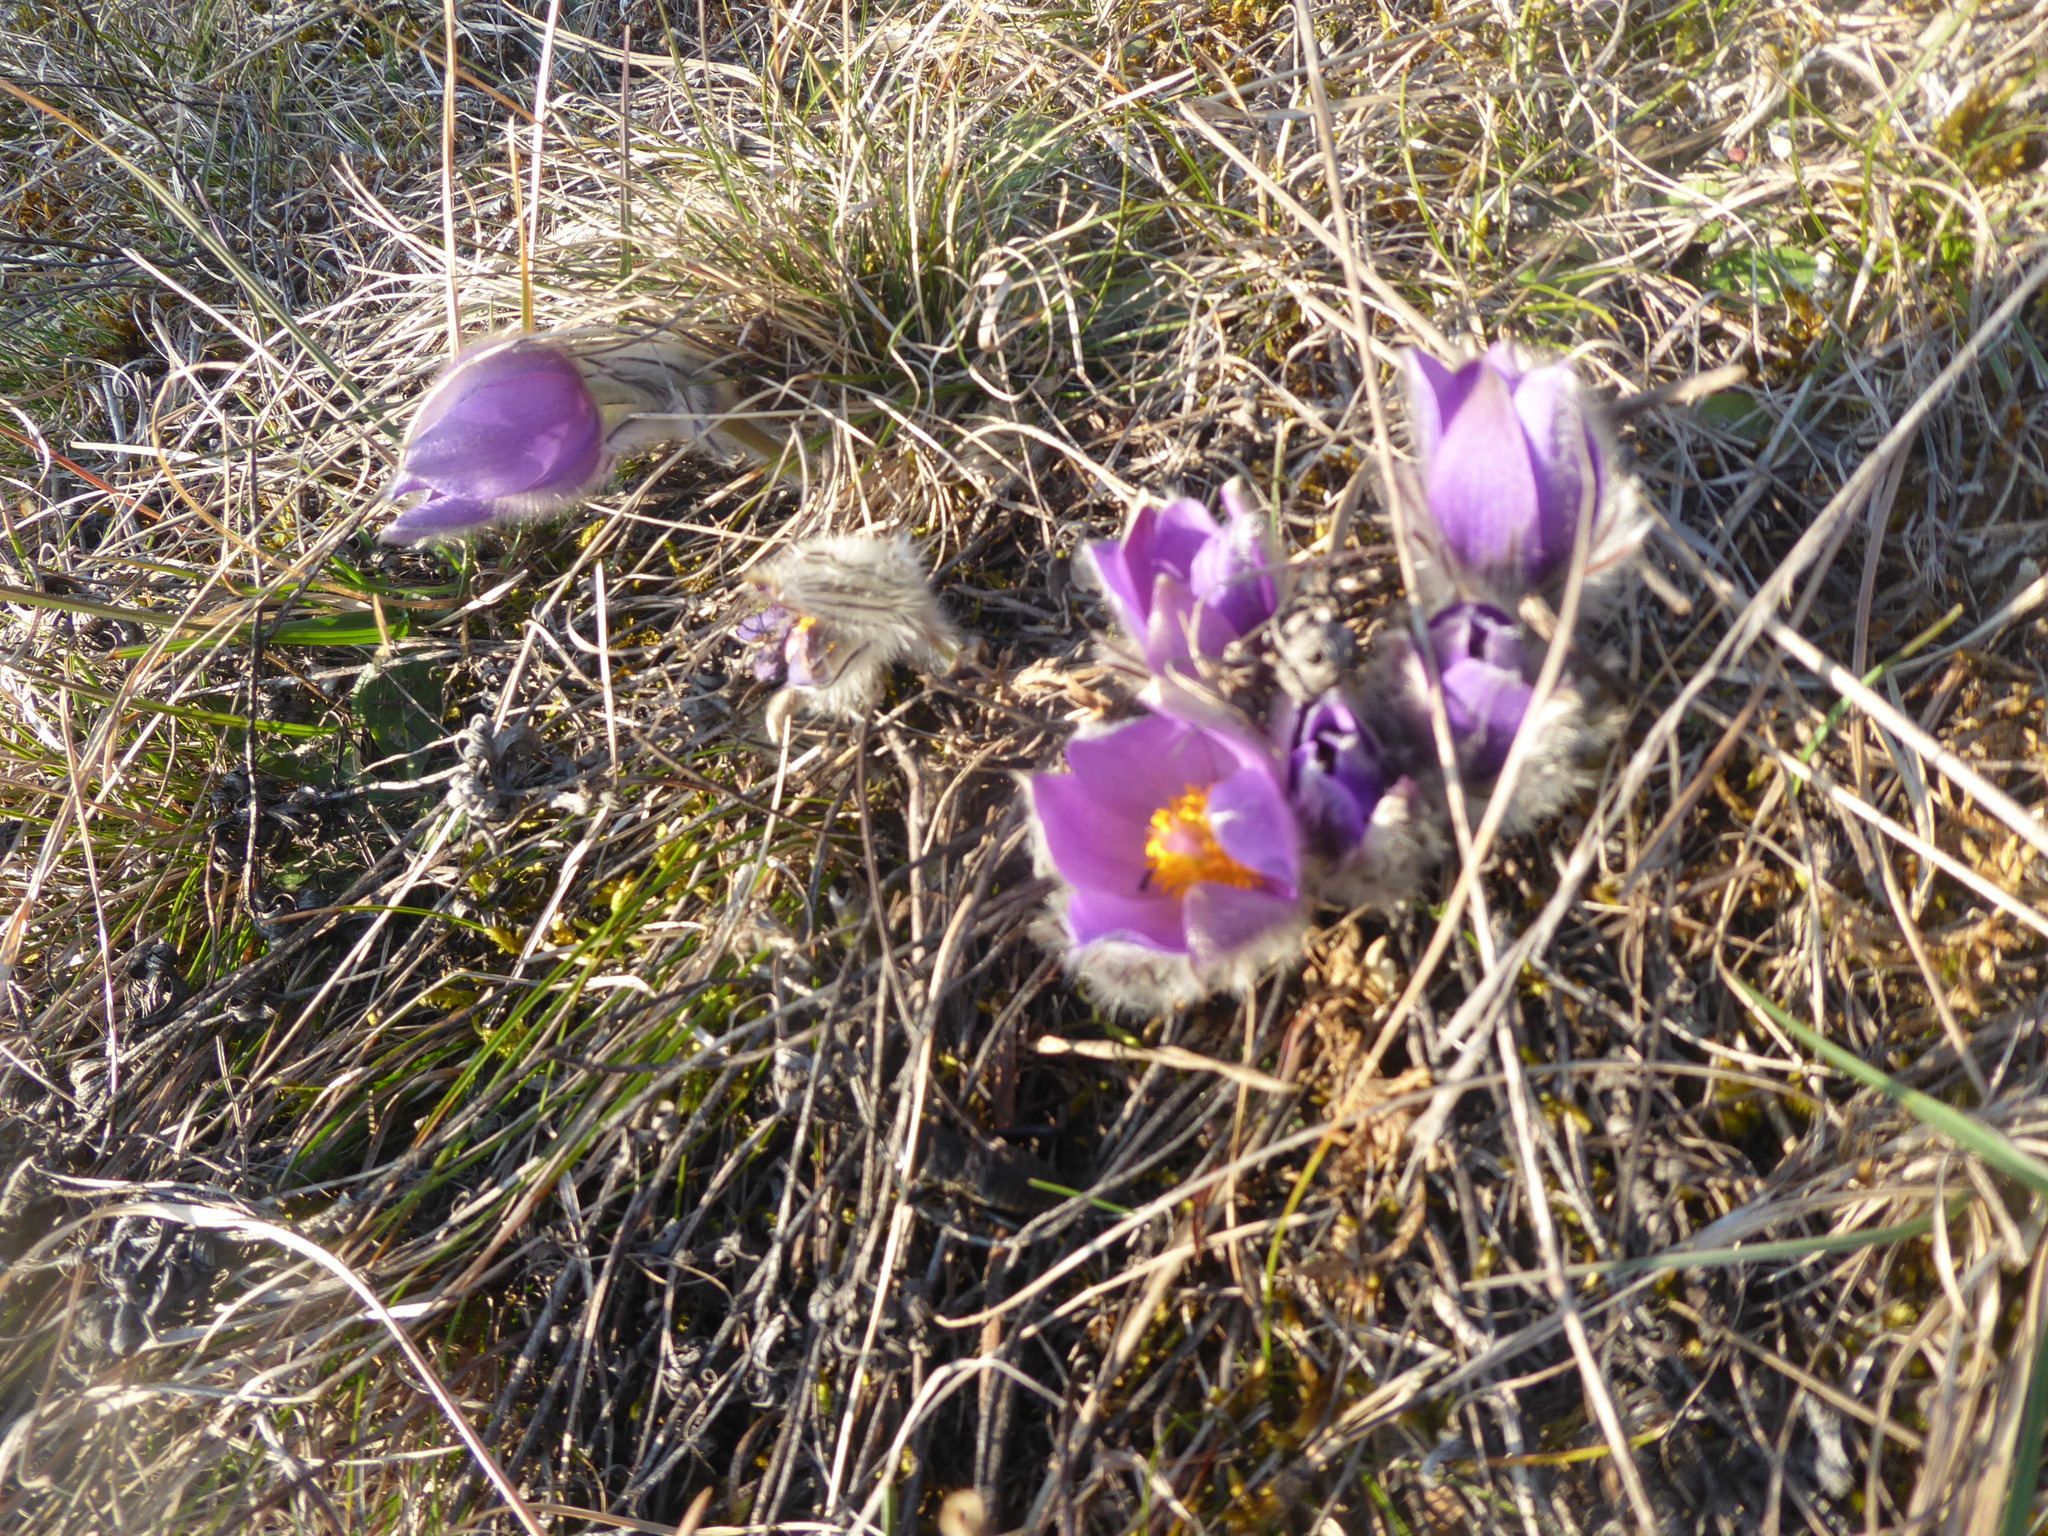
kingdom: Plantae
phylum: Tracheophyta
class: Magnoliopsida
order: Ranunculales
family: Ranunculaceae
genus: Pulsatilla
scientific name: Pulsatilla grandis
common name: Greater pasque flower
